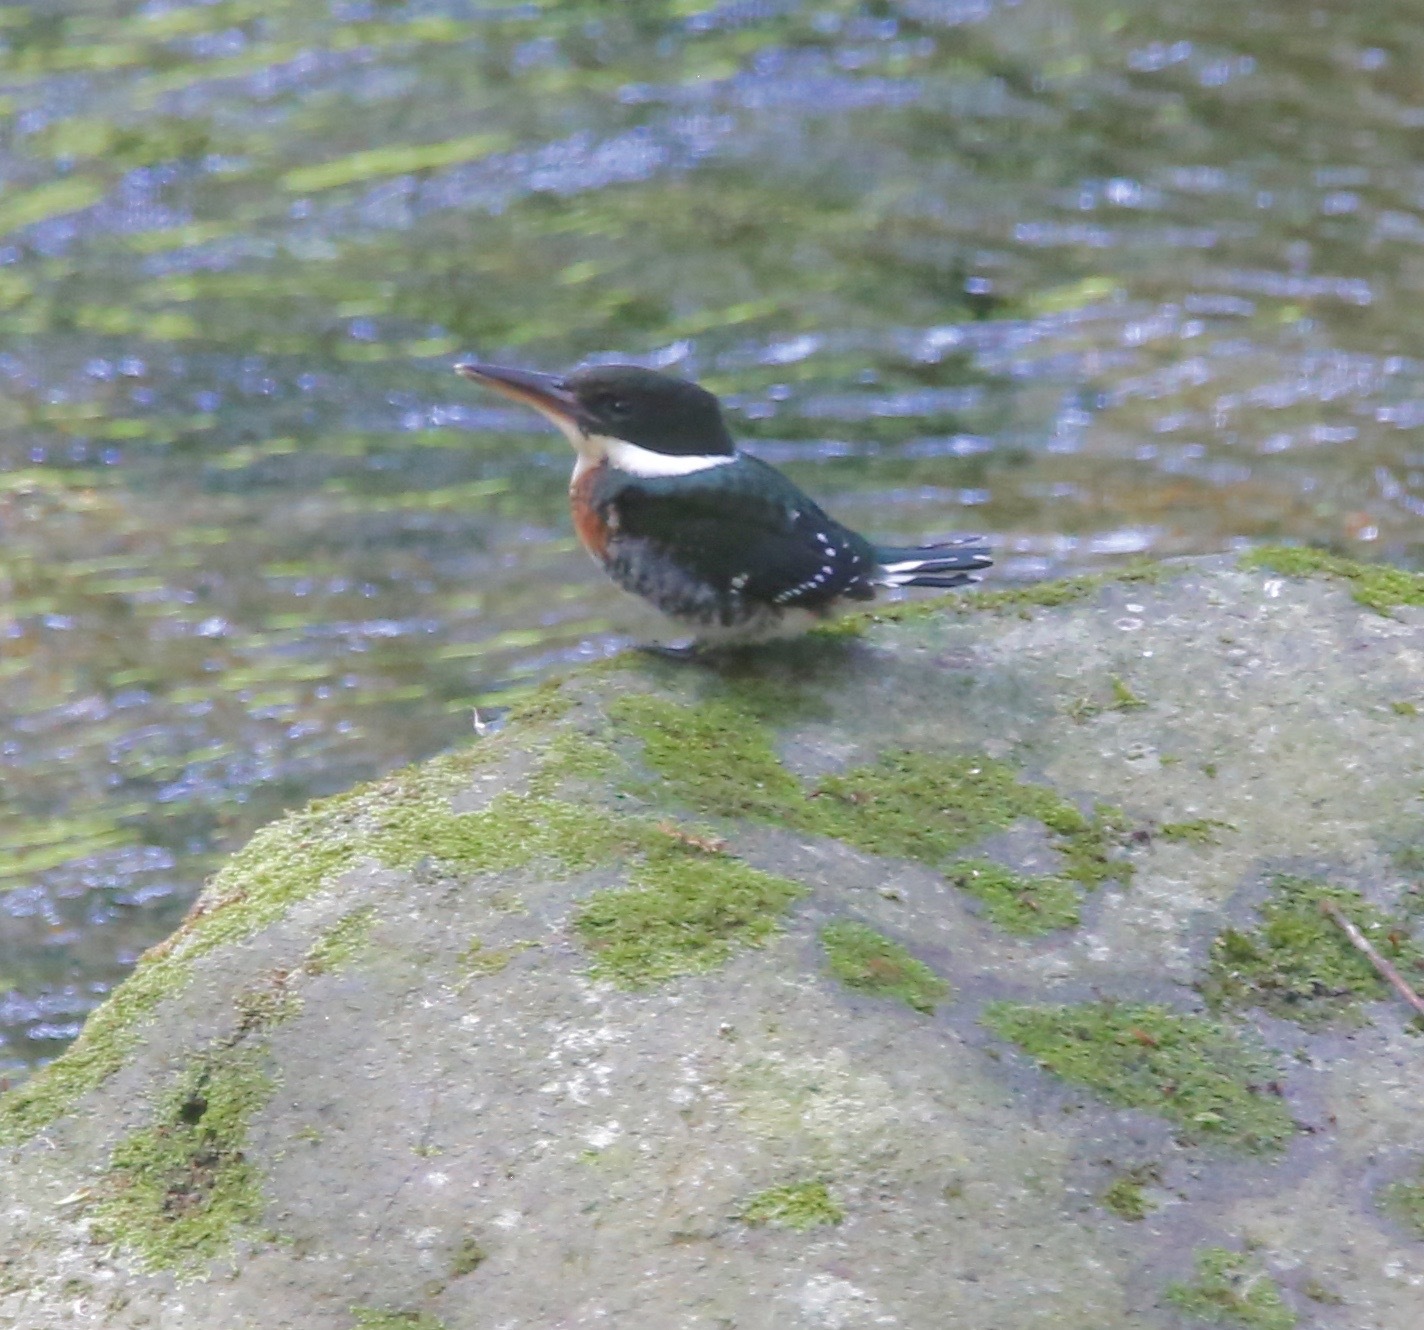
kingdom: Animalia
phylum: Chordata
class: Aves
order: Coraciiformes
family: Alcedinidae
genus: Chloroceryle
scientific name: Chloroceryle americana
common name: Green kingfisher
